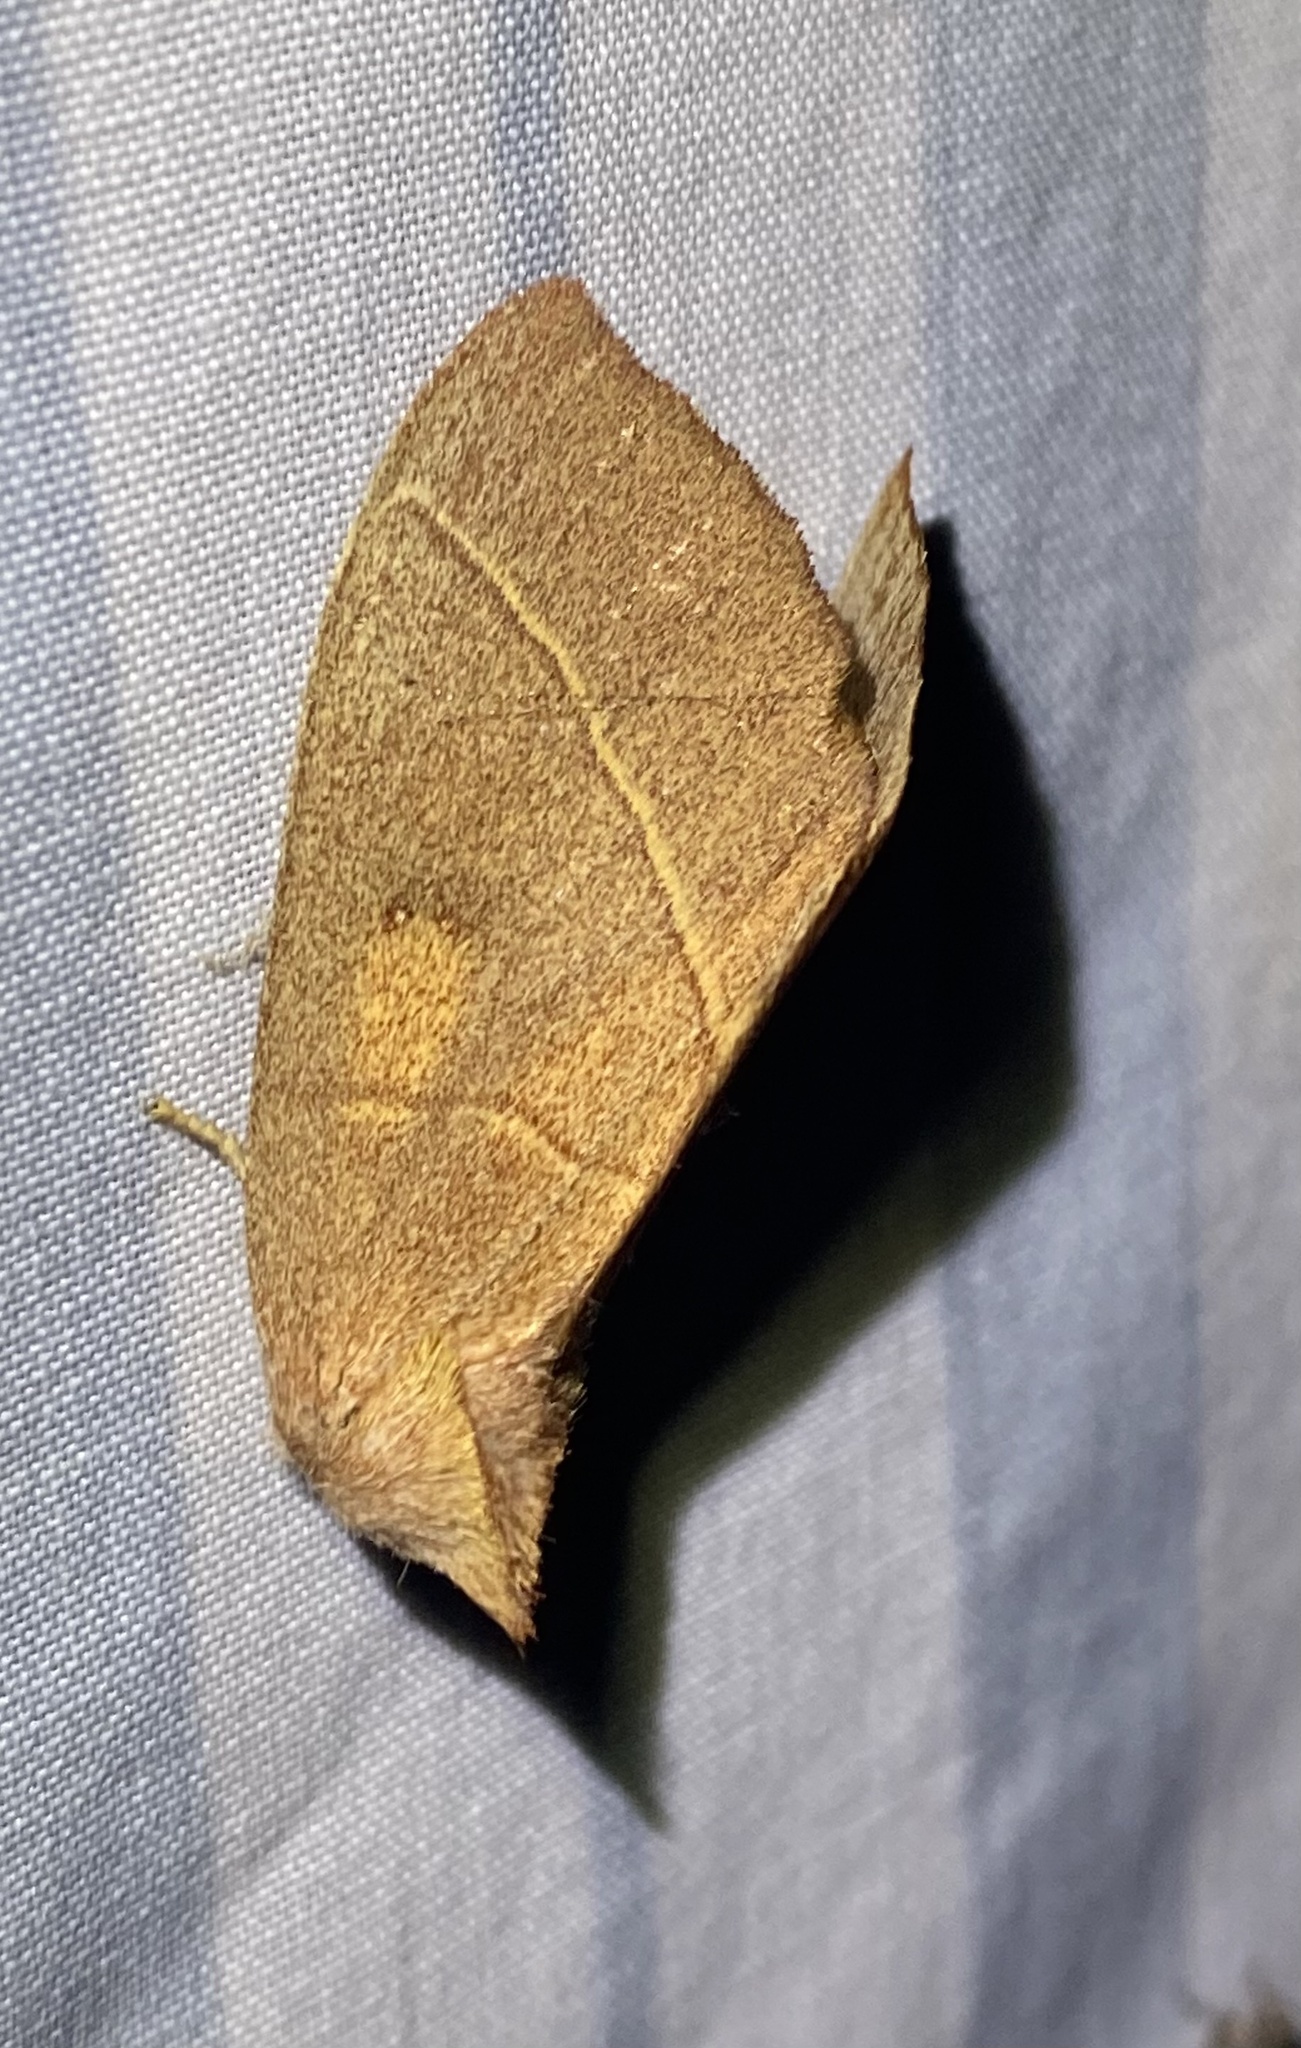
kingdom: Animalia
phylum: Arthropoda
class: Insecta
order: Lepidoptera
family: Notodontidae
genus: Nadata
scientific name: Nadata gibbosa
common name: White-dotted prominent
